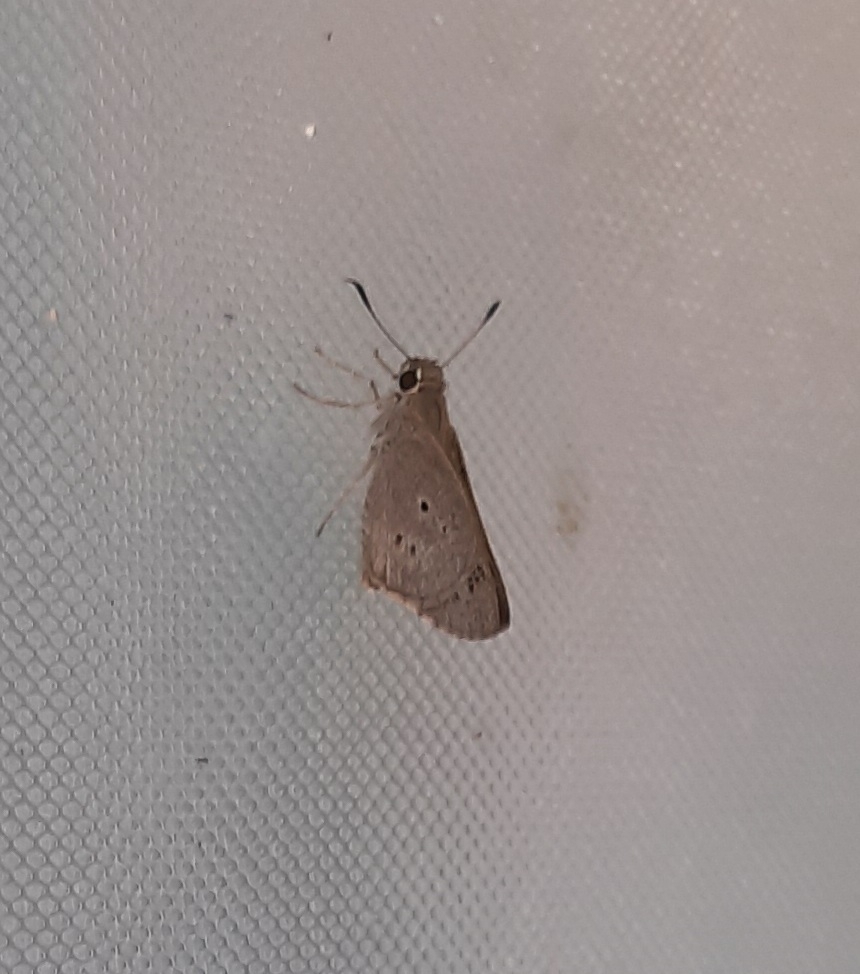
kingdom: Animalia
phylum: Arthropoda
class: Insecta
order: Lepidoptera
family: Hesperiidae
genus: Suastus
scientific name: Suastus gremius
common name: Indian palm bob
